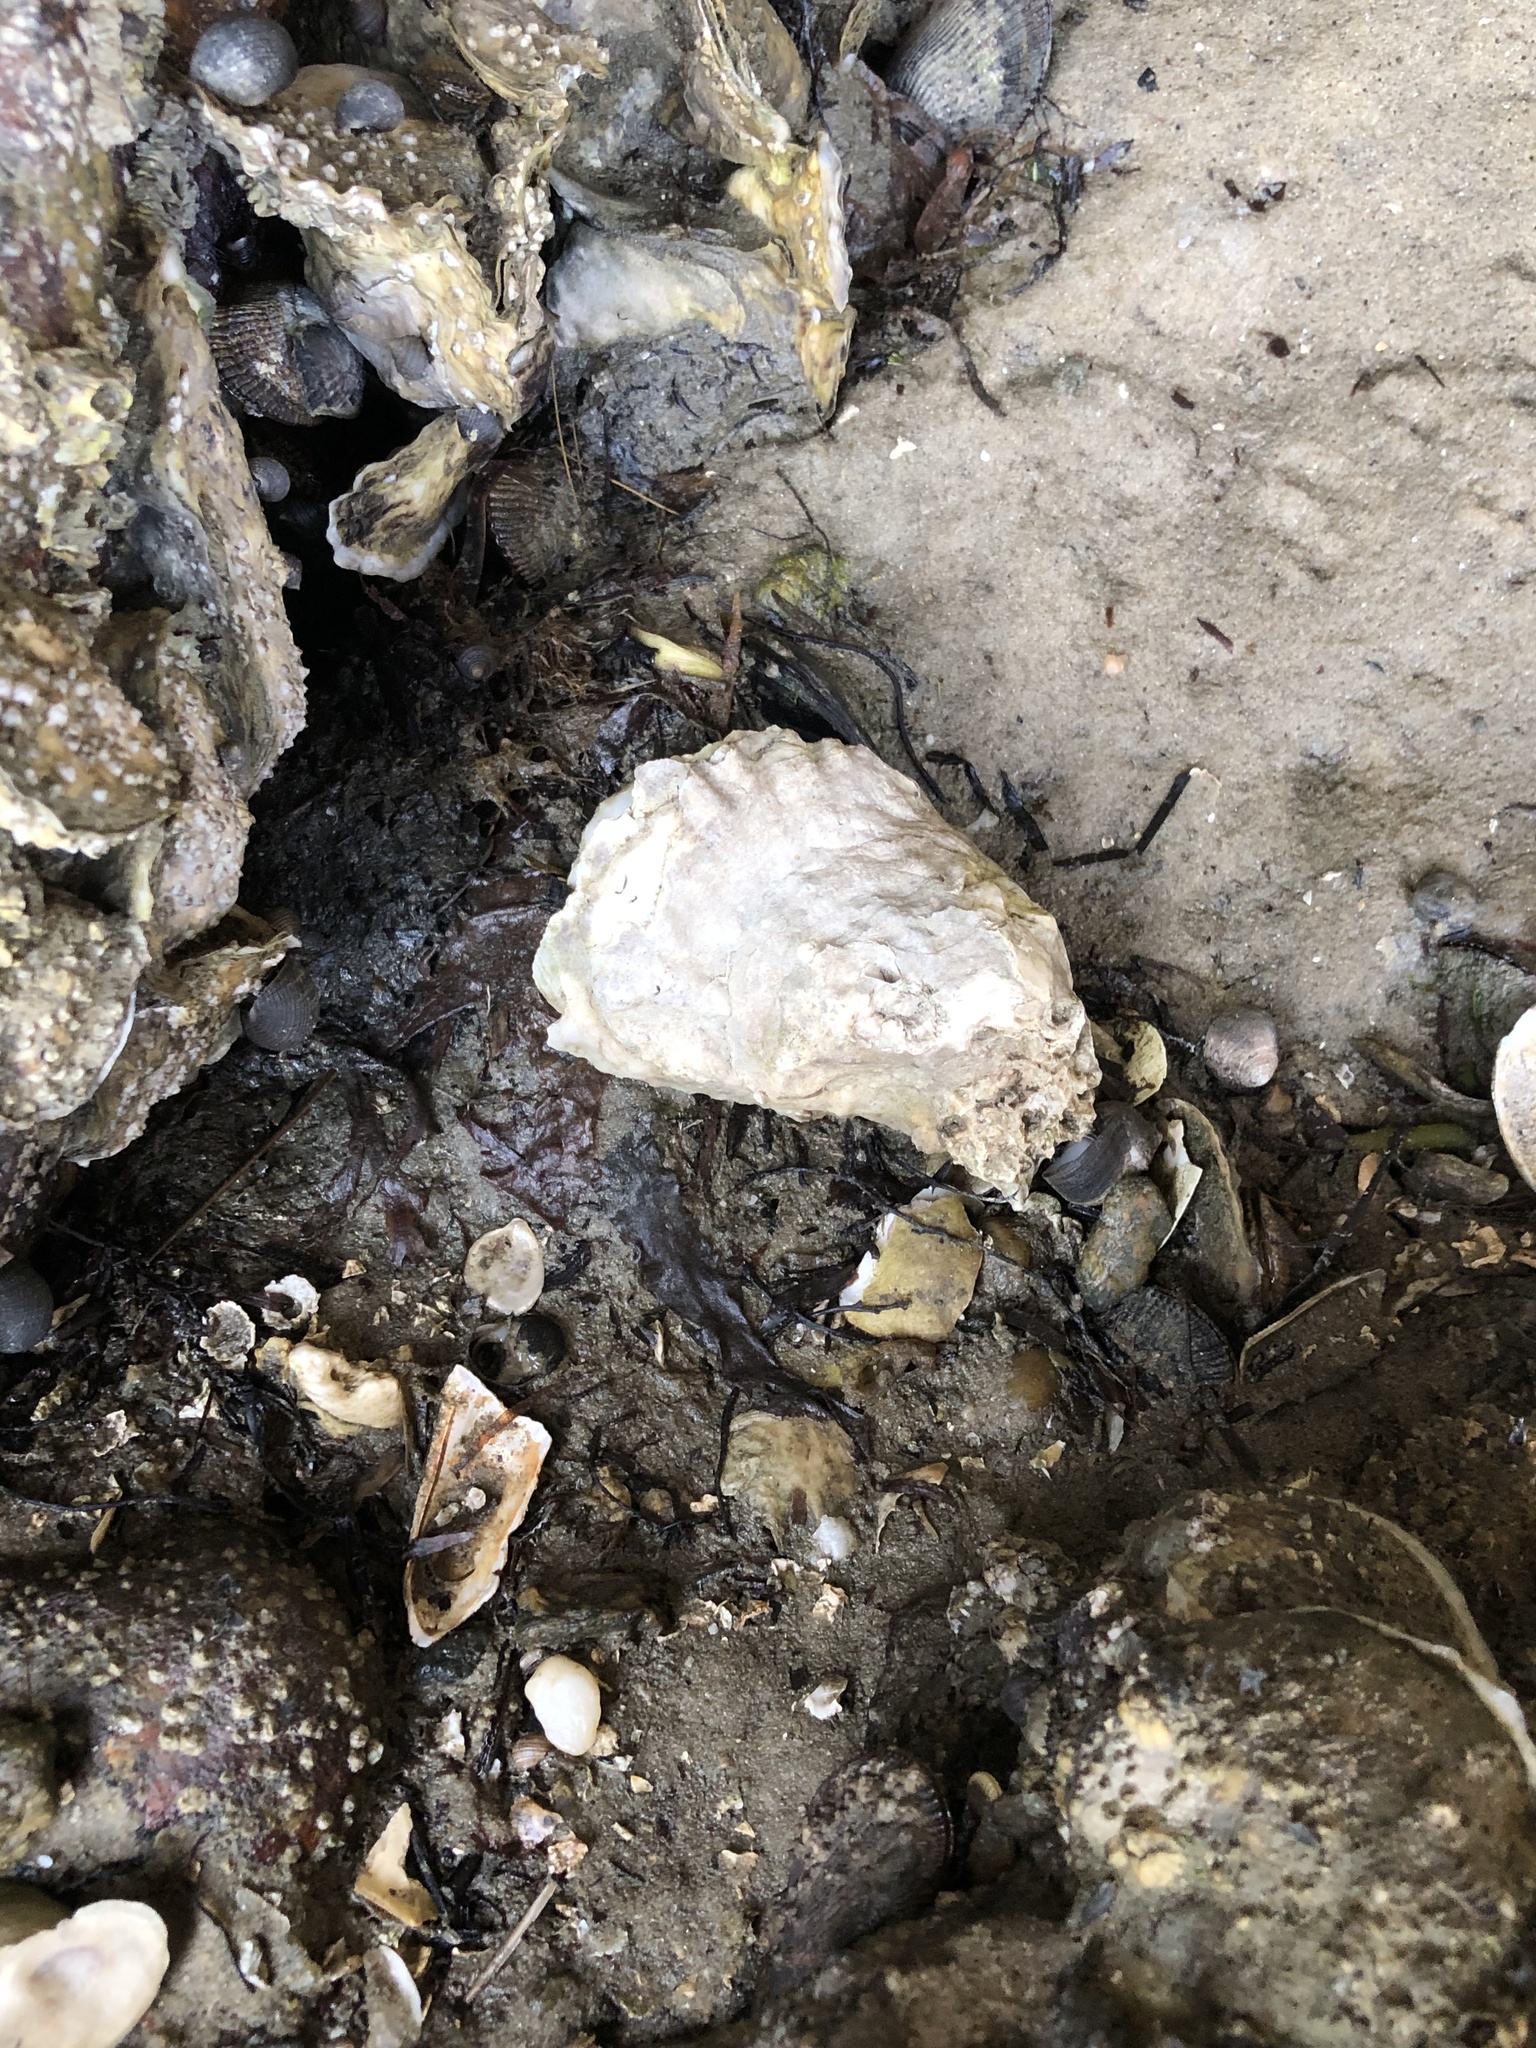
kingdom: Animalia
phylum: Mollusca
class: Bivalvia
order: Ostreida
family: Ostreidae
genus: Crassostrea
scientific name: Crassostrea virginica
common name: American oyster
